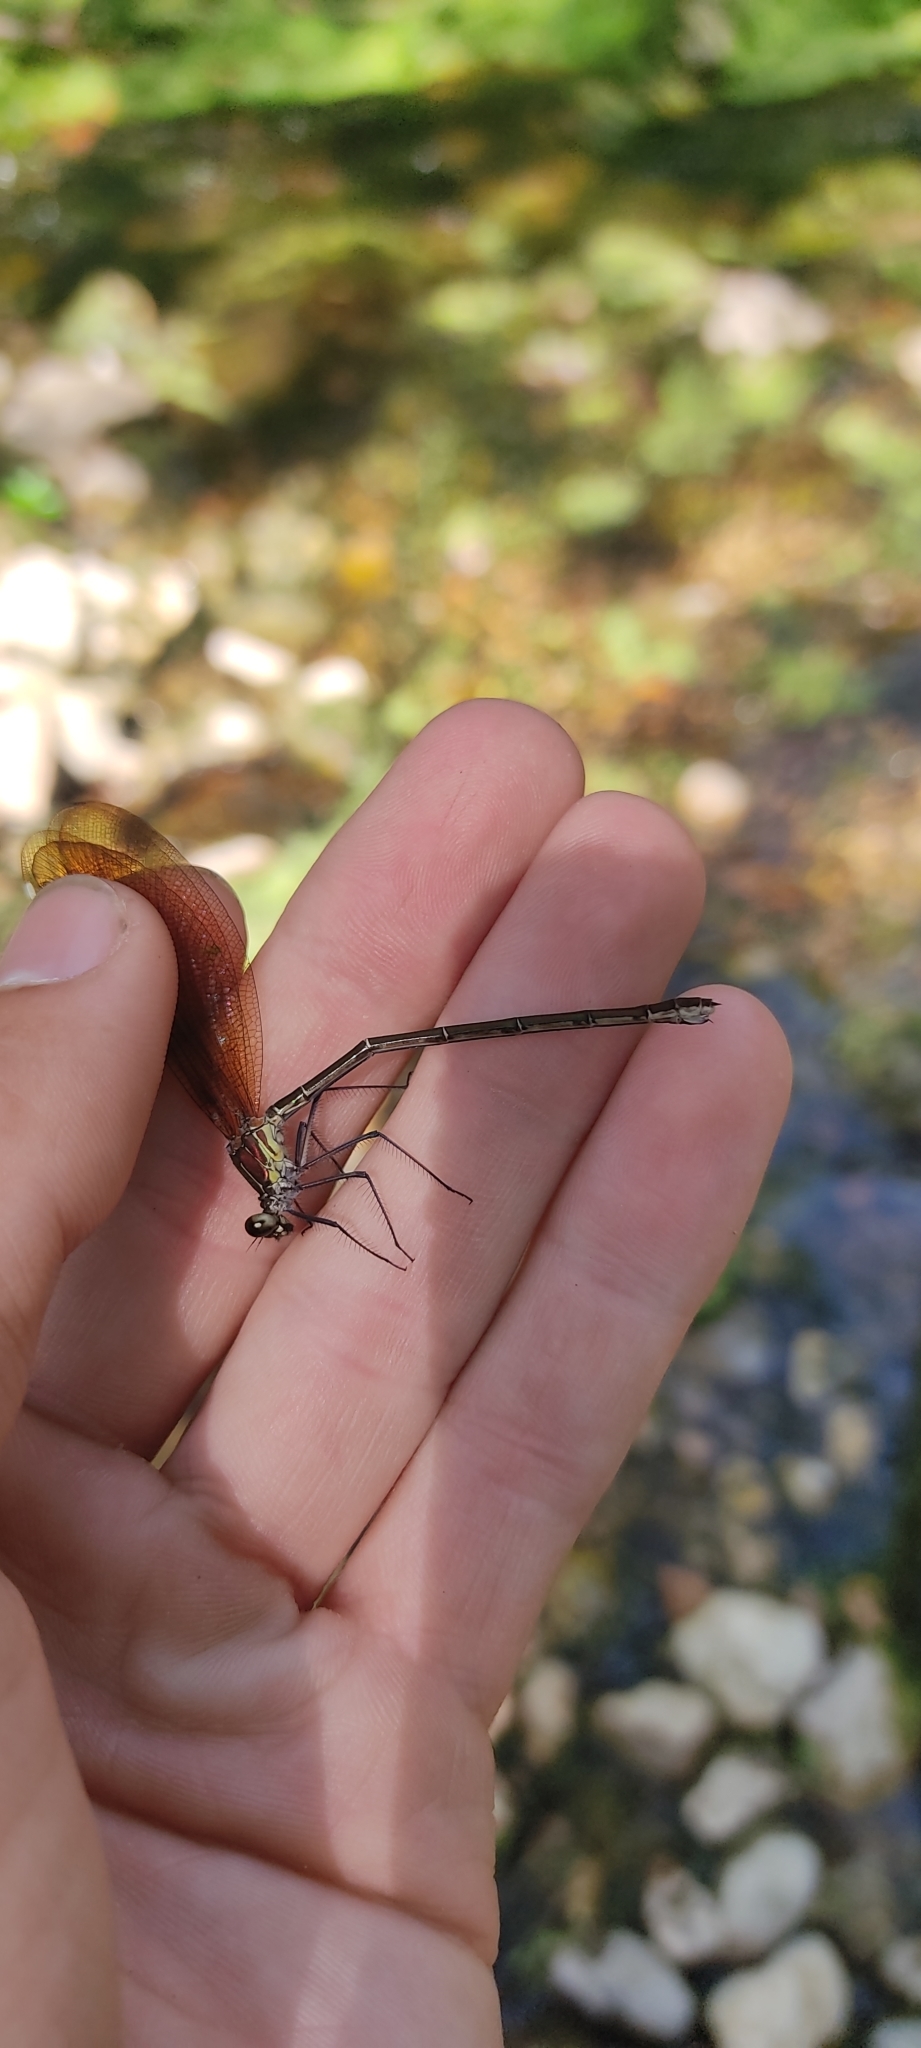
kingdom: Animalia
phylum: Arthropoda
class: Insecta
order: Odonata
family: Calopterygidae
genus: Calopteryx
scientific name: Calopteryx haemorrhoidalis
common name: Copper demoiselle
